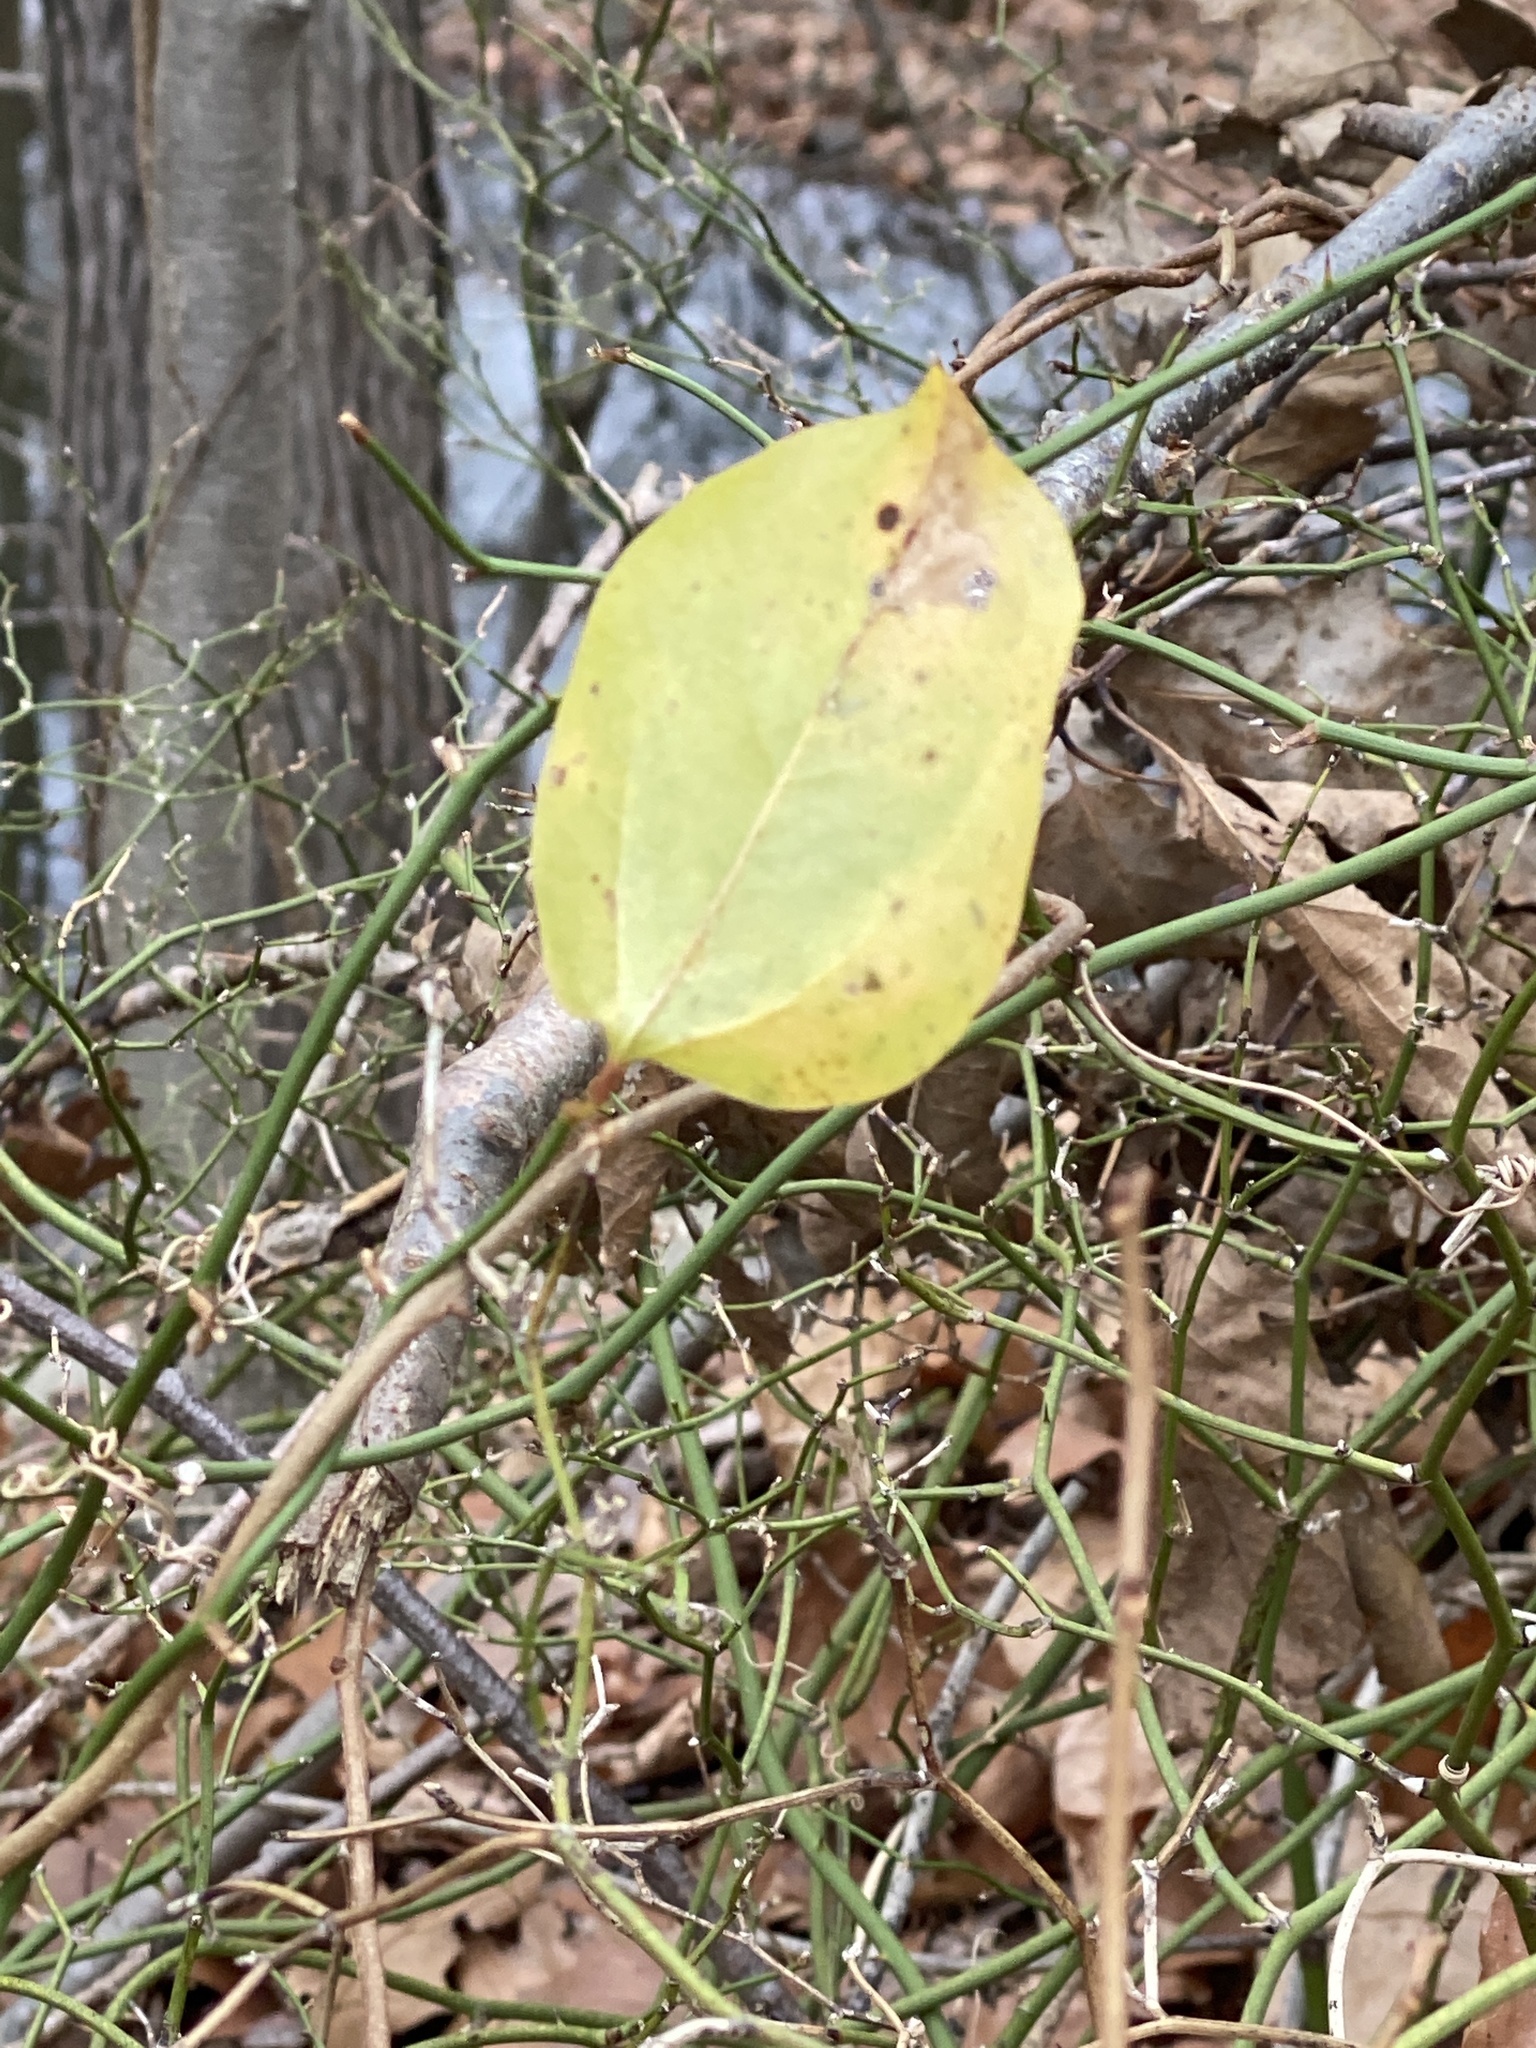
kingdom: Plantae
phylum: Tracheophyta
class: Liliopsida
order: Liliales
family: Smilacaceae
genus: Smilax
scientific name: Smilax rotundifolia
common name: Bullbriar
